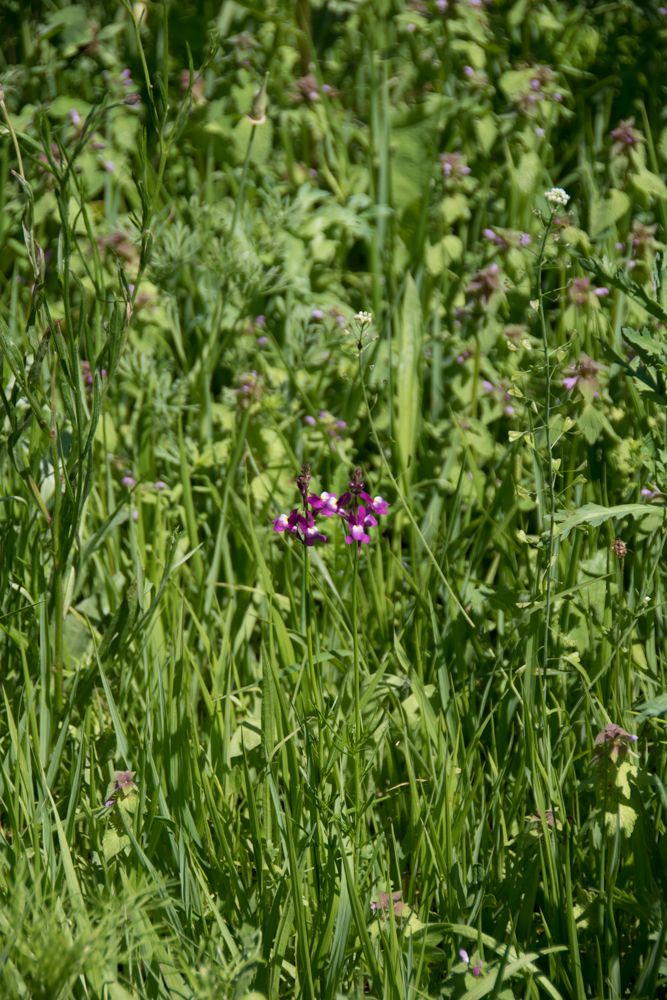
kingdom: Plantae
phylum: Tracheophyta
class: Magnoliopsida
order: Lamiales
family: Plantaginaceae
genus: Linaria
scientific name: Linaria maroccana
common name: Moroccan toadflax
